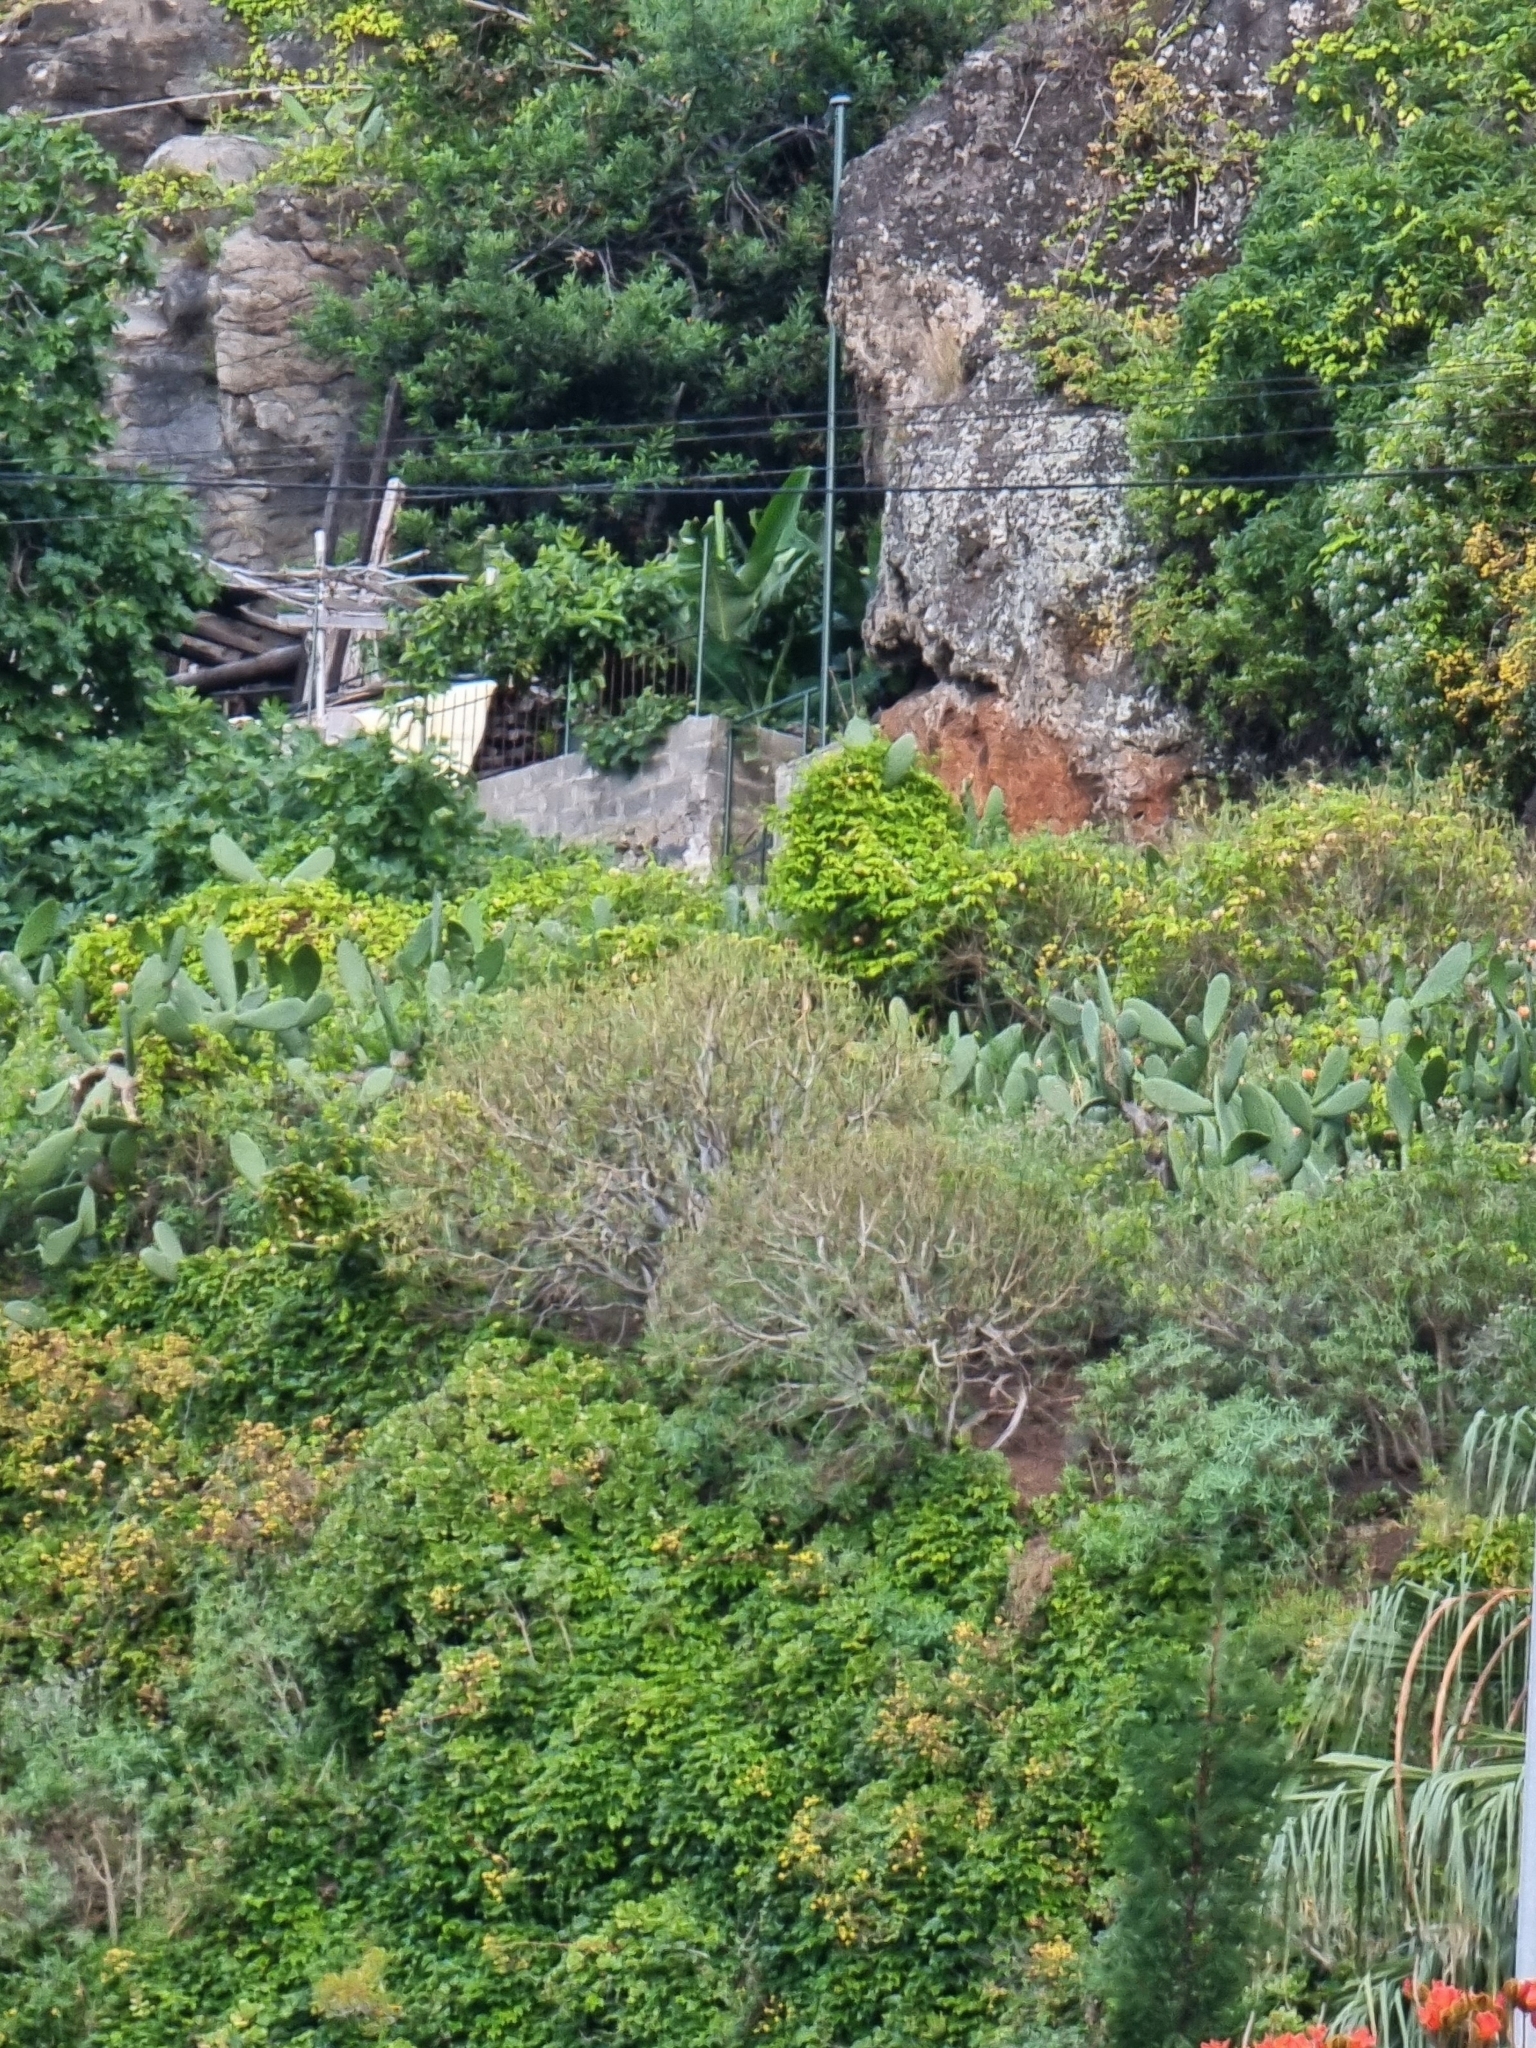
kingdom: Plantae
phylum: Tracheophyta
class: Magnoliopsida
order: Malpighiales
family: Euphorbiaceae
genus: Euphorbia
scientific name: Euphorbia piscatoria
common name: Fish-stunning spurge
